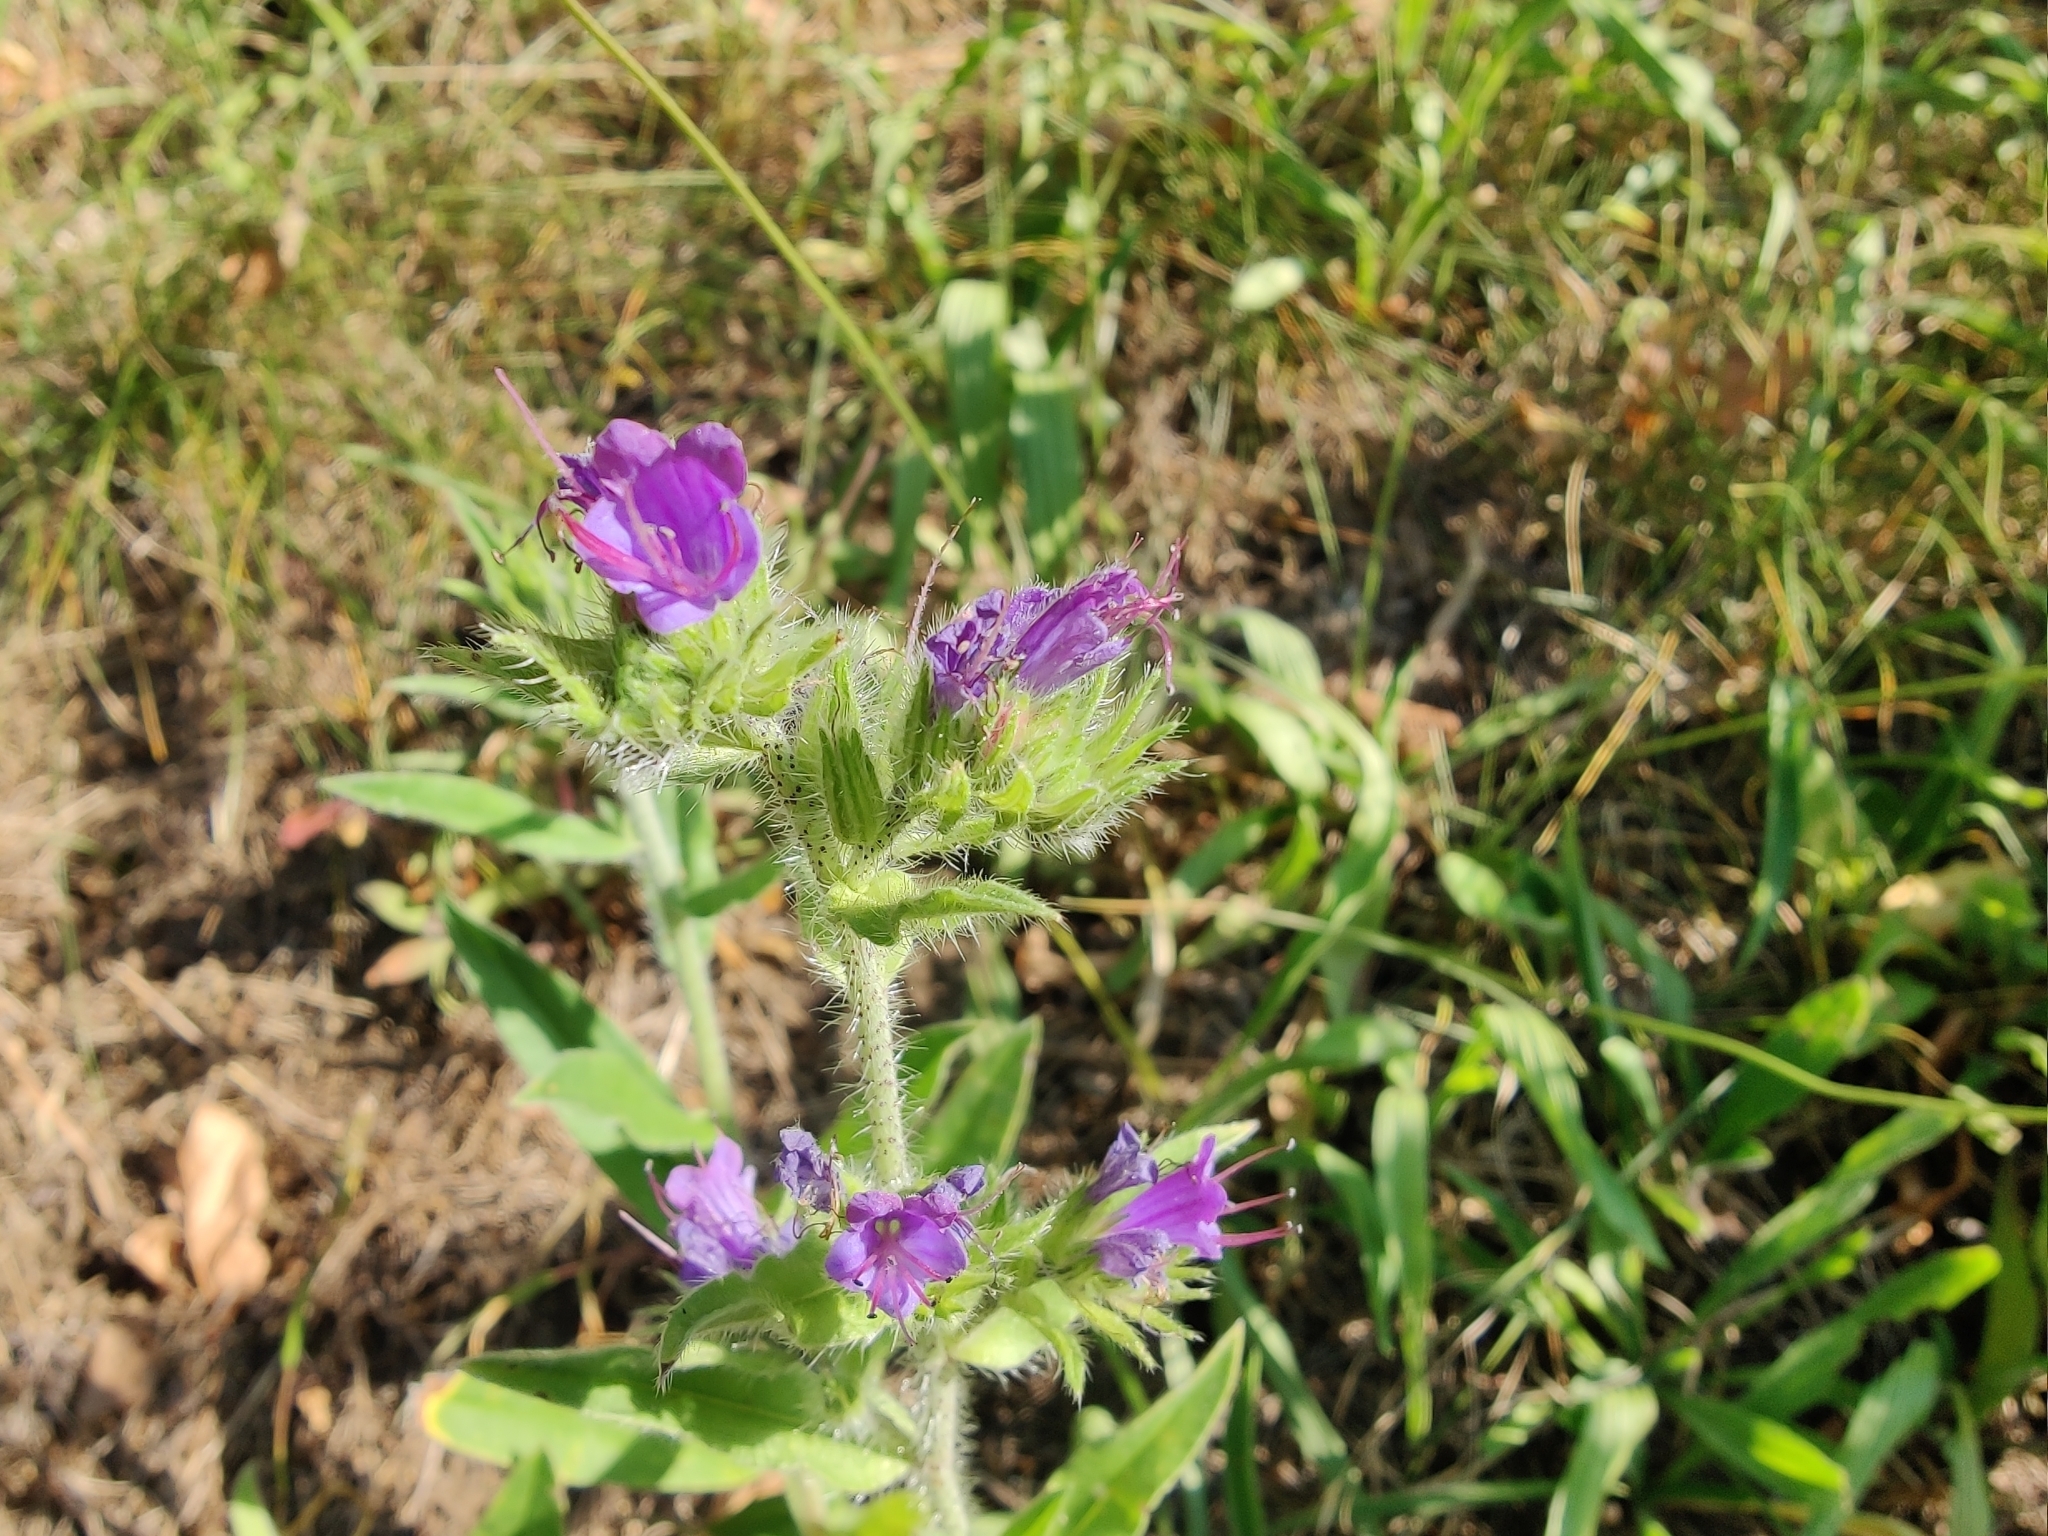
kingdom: Plantae
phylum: Tracheophyta
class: Magnoliopsida
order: Boraginales
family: Boraginaceae
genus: Echium
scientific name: Echium vulgare
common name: Common viper's bugloss
